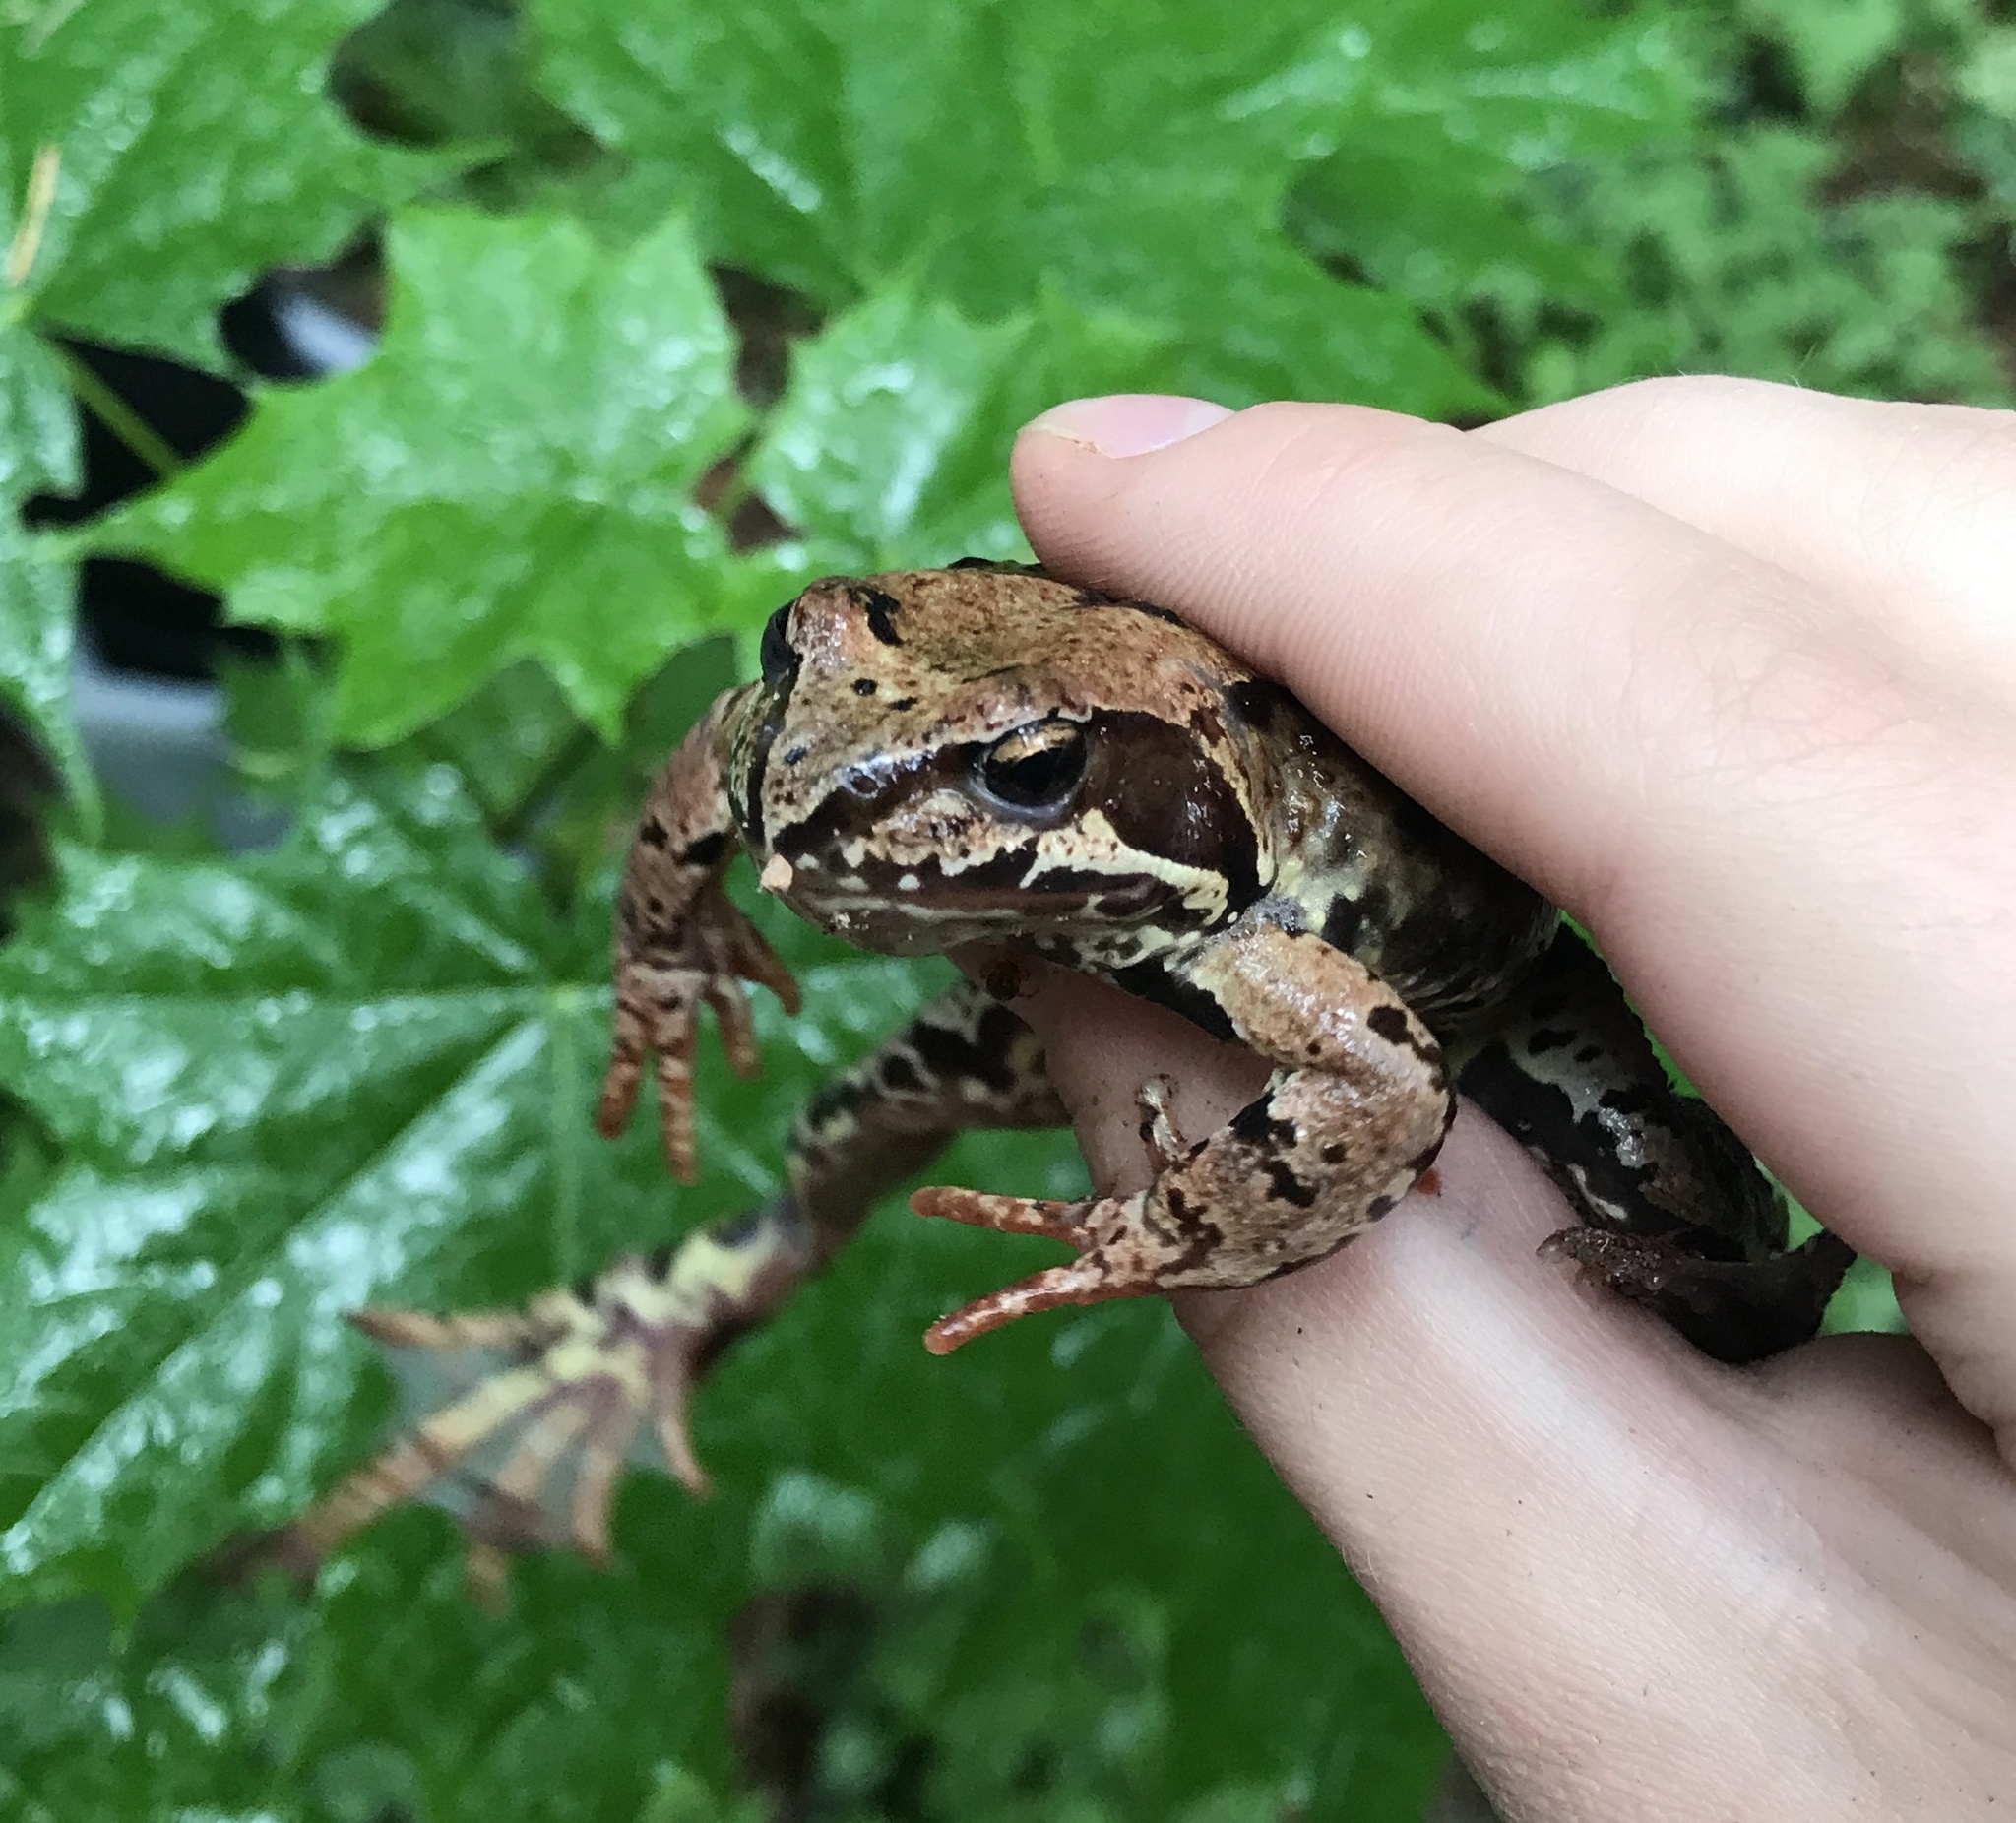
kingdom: Animalia
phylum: Chordata
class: Amphibia
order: Anura
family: Ranidae
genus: Rana
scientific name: Rana temporaria
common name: Common frog
